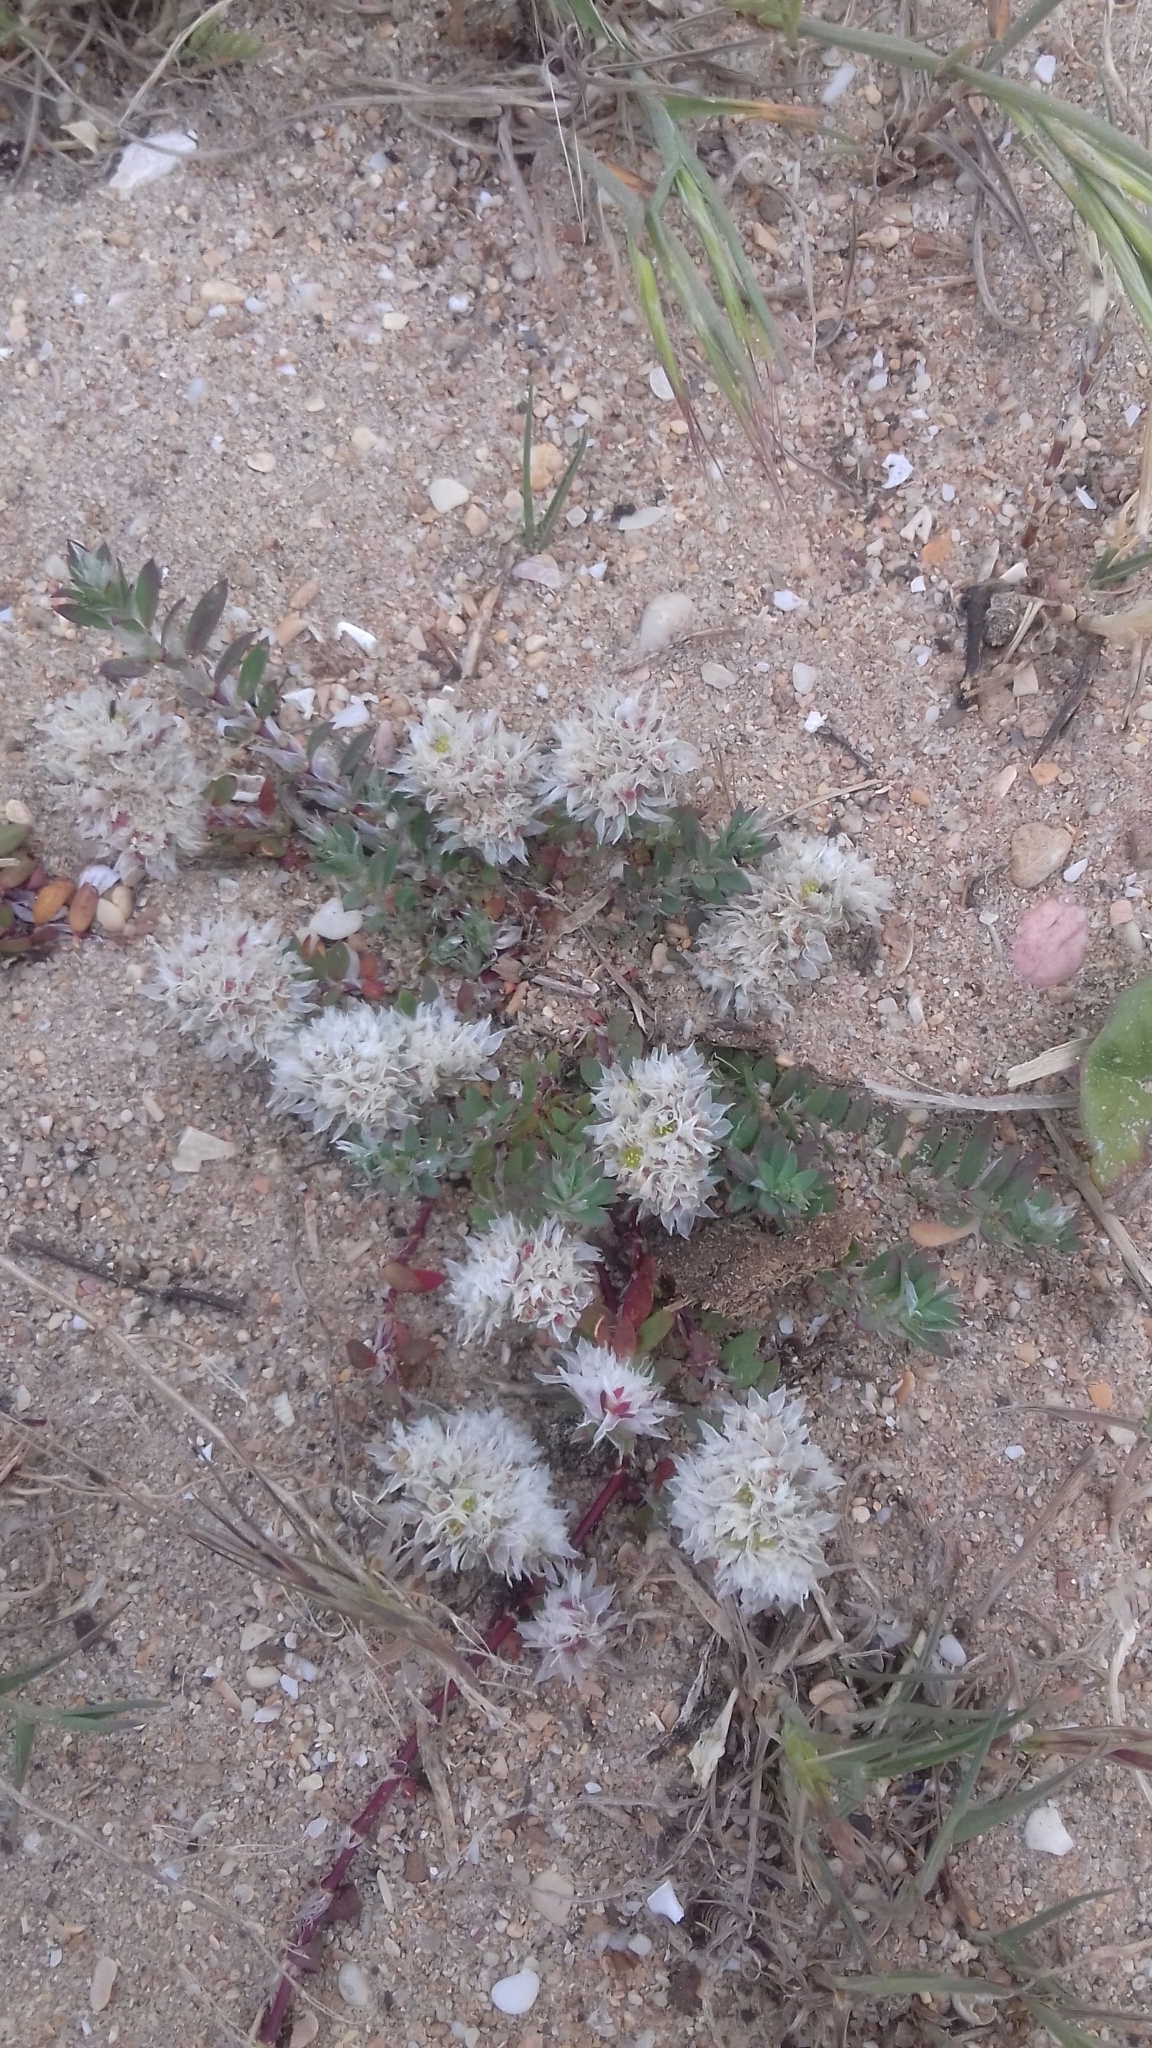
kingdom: Plantae
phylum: Tracheophyta
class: Magnoliopsida
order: Caryophyllales
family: Caryophyllaceae
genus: Paronychia
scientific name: Paronychia argentea
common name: Silver nailroot
